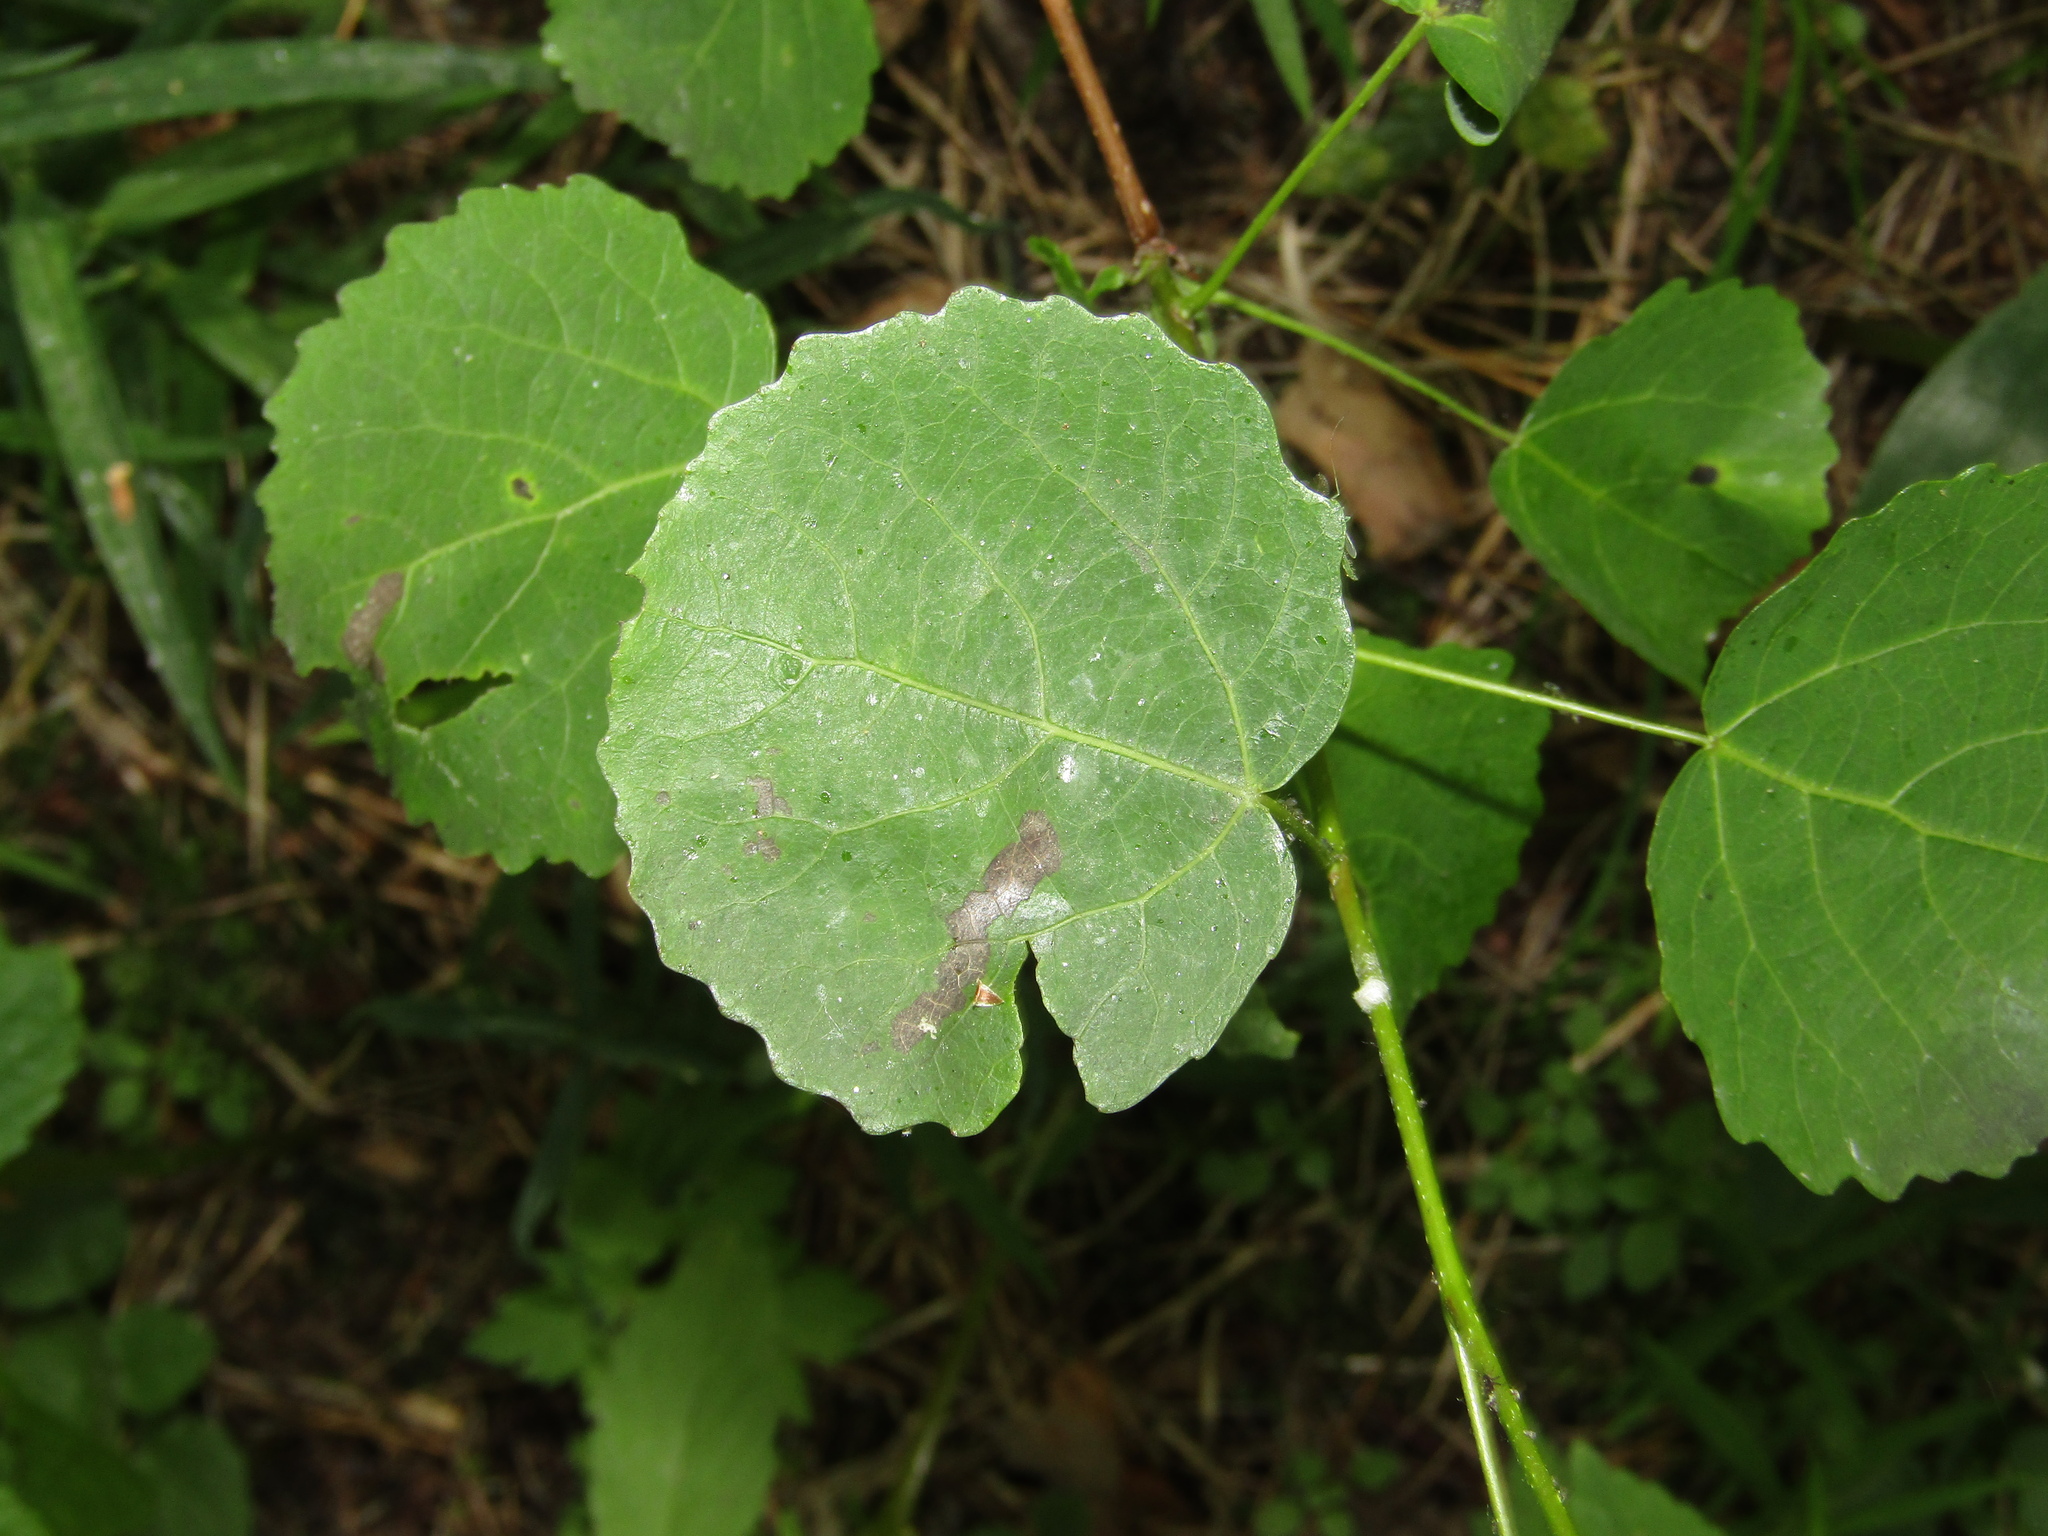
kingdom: Plantae
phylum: Tracheophyta
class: Magnoliopsida
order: Malpighiales
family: Salicaceae
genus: Populus
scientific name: Populus tremula
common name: European aspen
